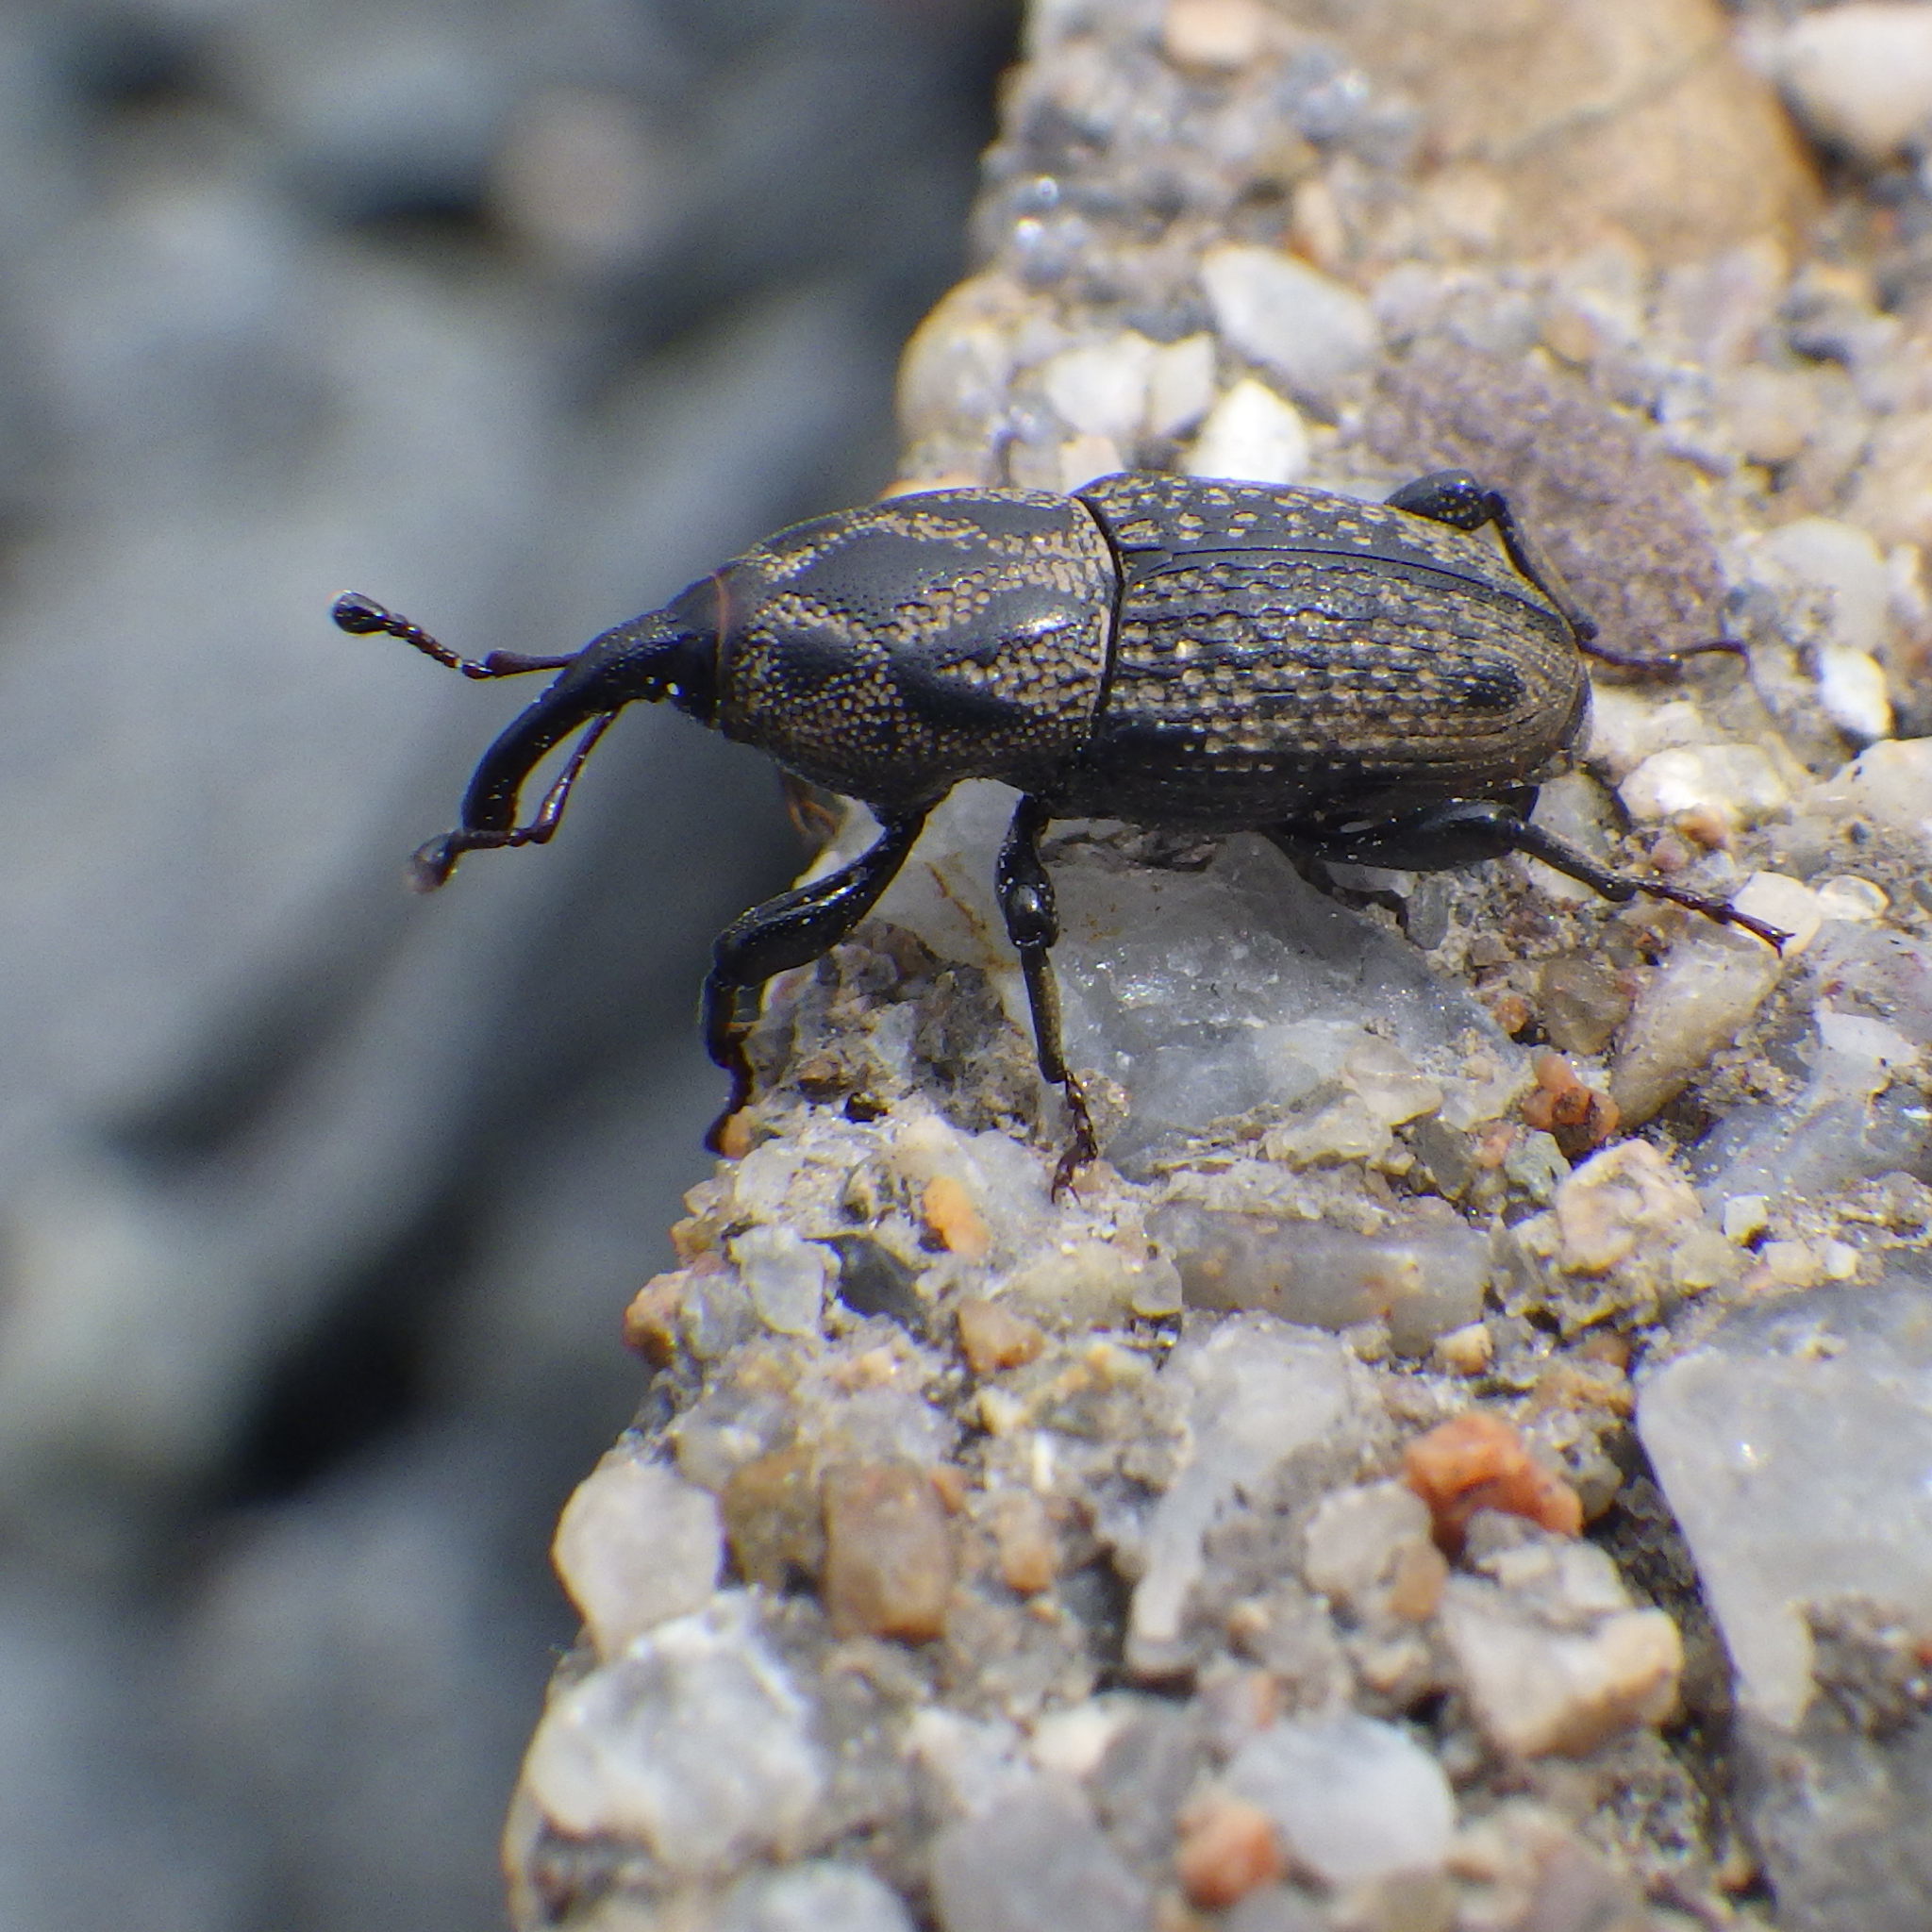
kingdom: Animalia
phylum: Arthropoda
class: Insecta
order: Coleoptera
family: Dryophthoridae
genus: Sphenophorus
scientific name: Sphenophorus zeae
